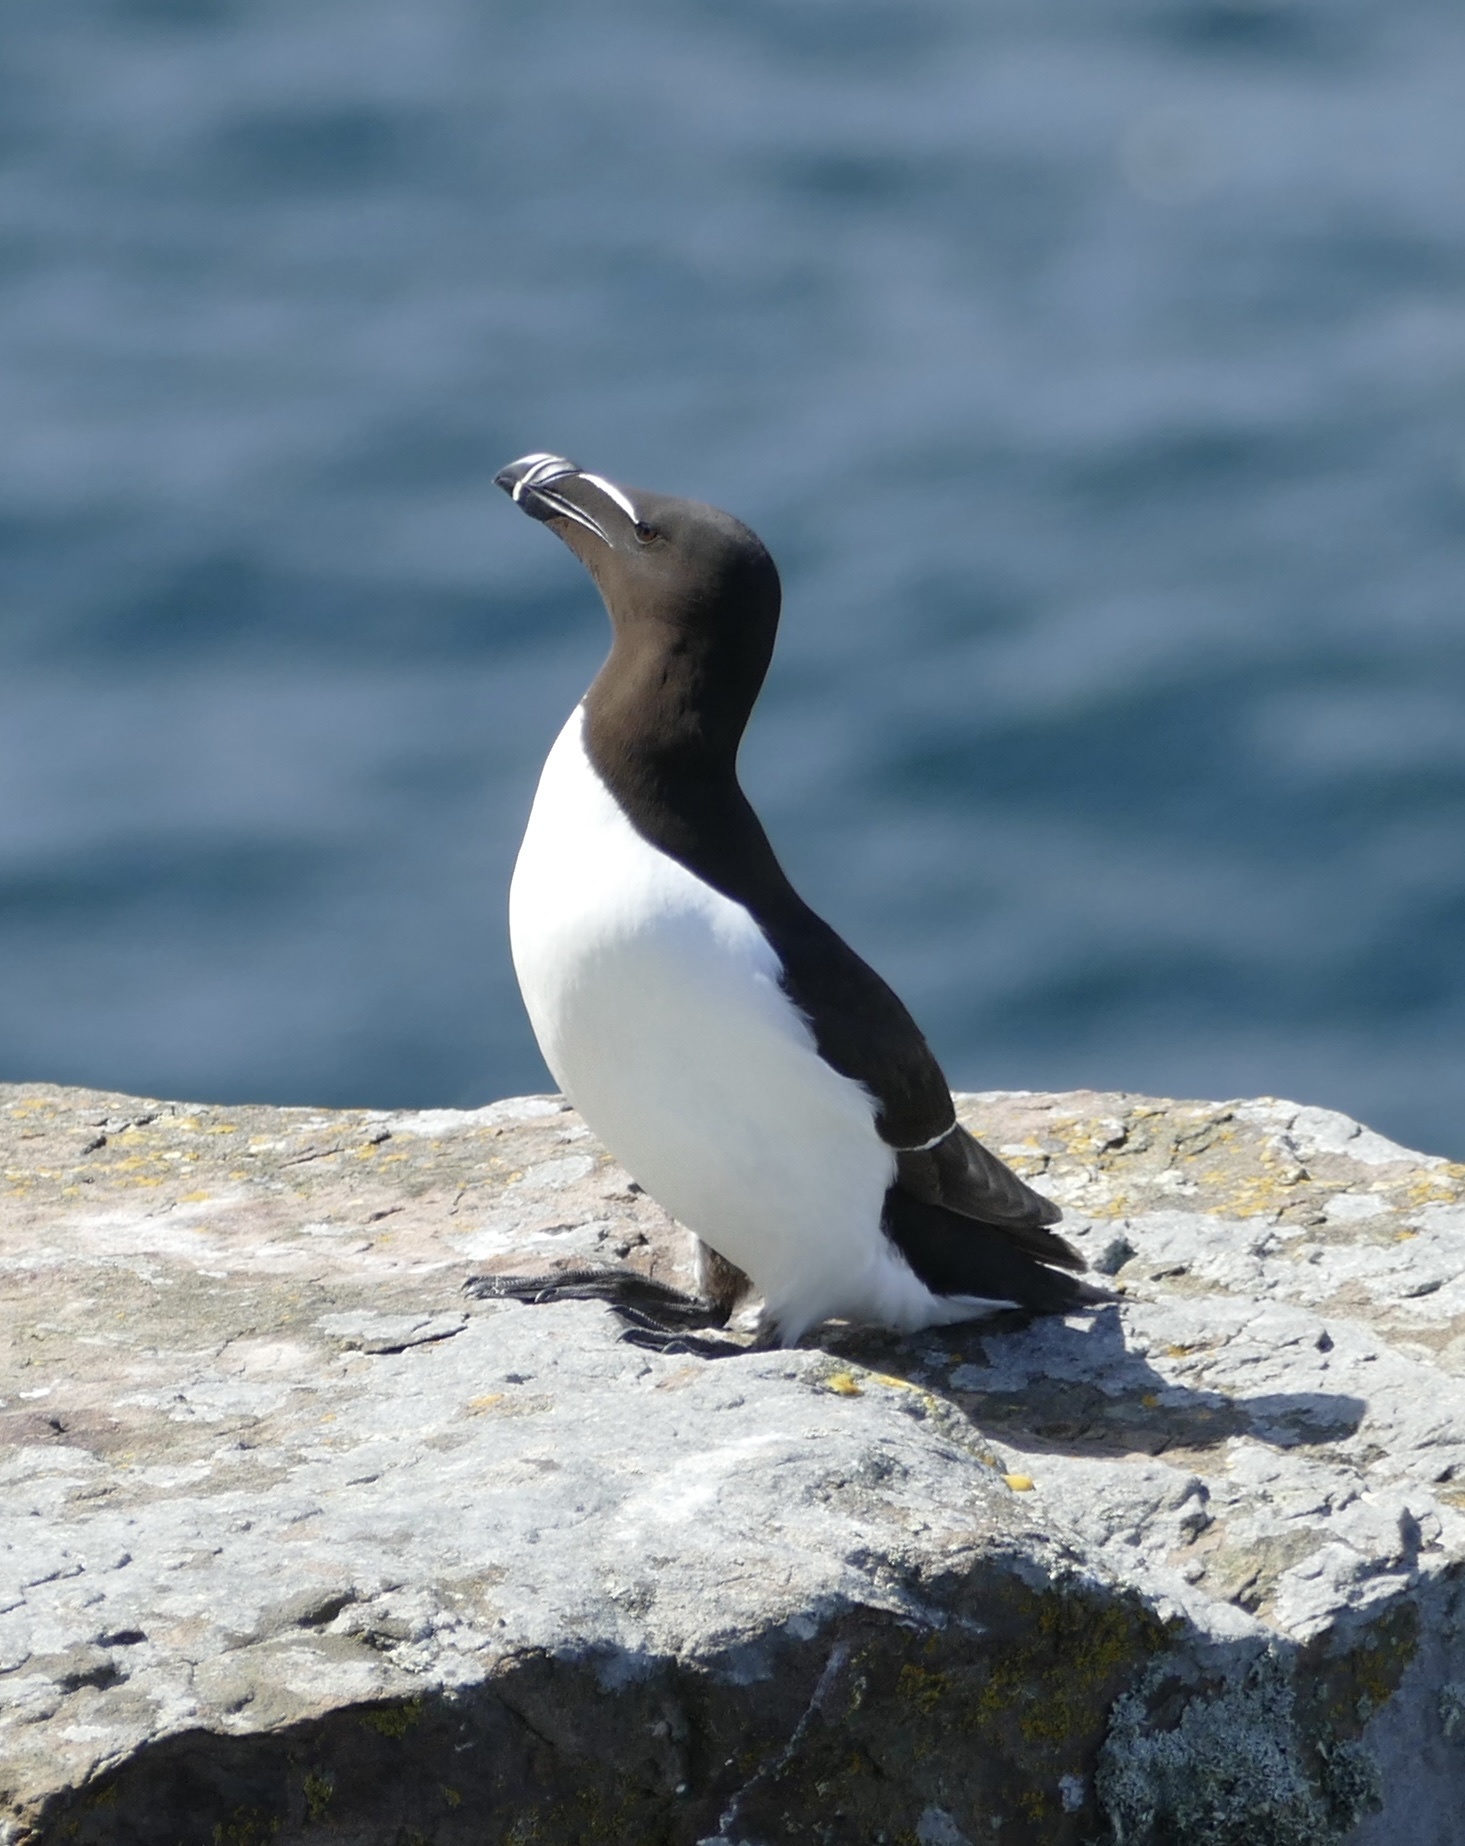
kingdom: Animalia
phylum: Chordata
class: Aves
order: Charadriiformes
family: Alcidae
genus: Alca
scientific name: Alca torda
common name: Razorbill
